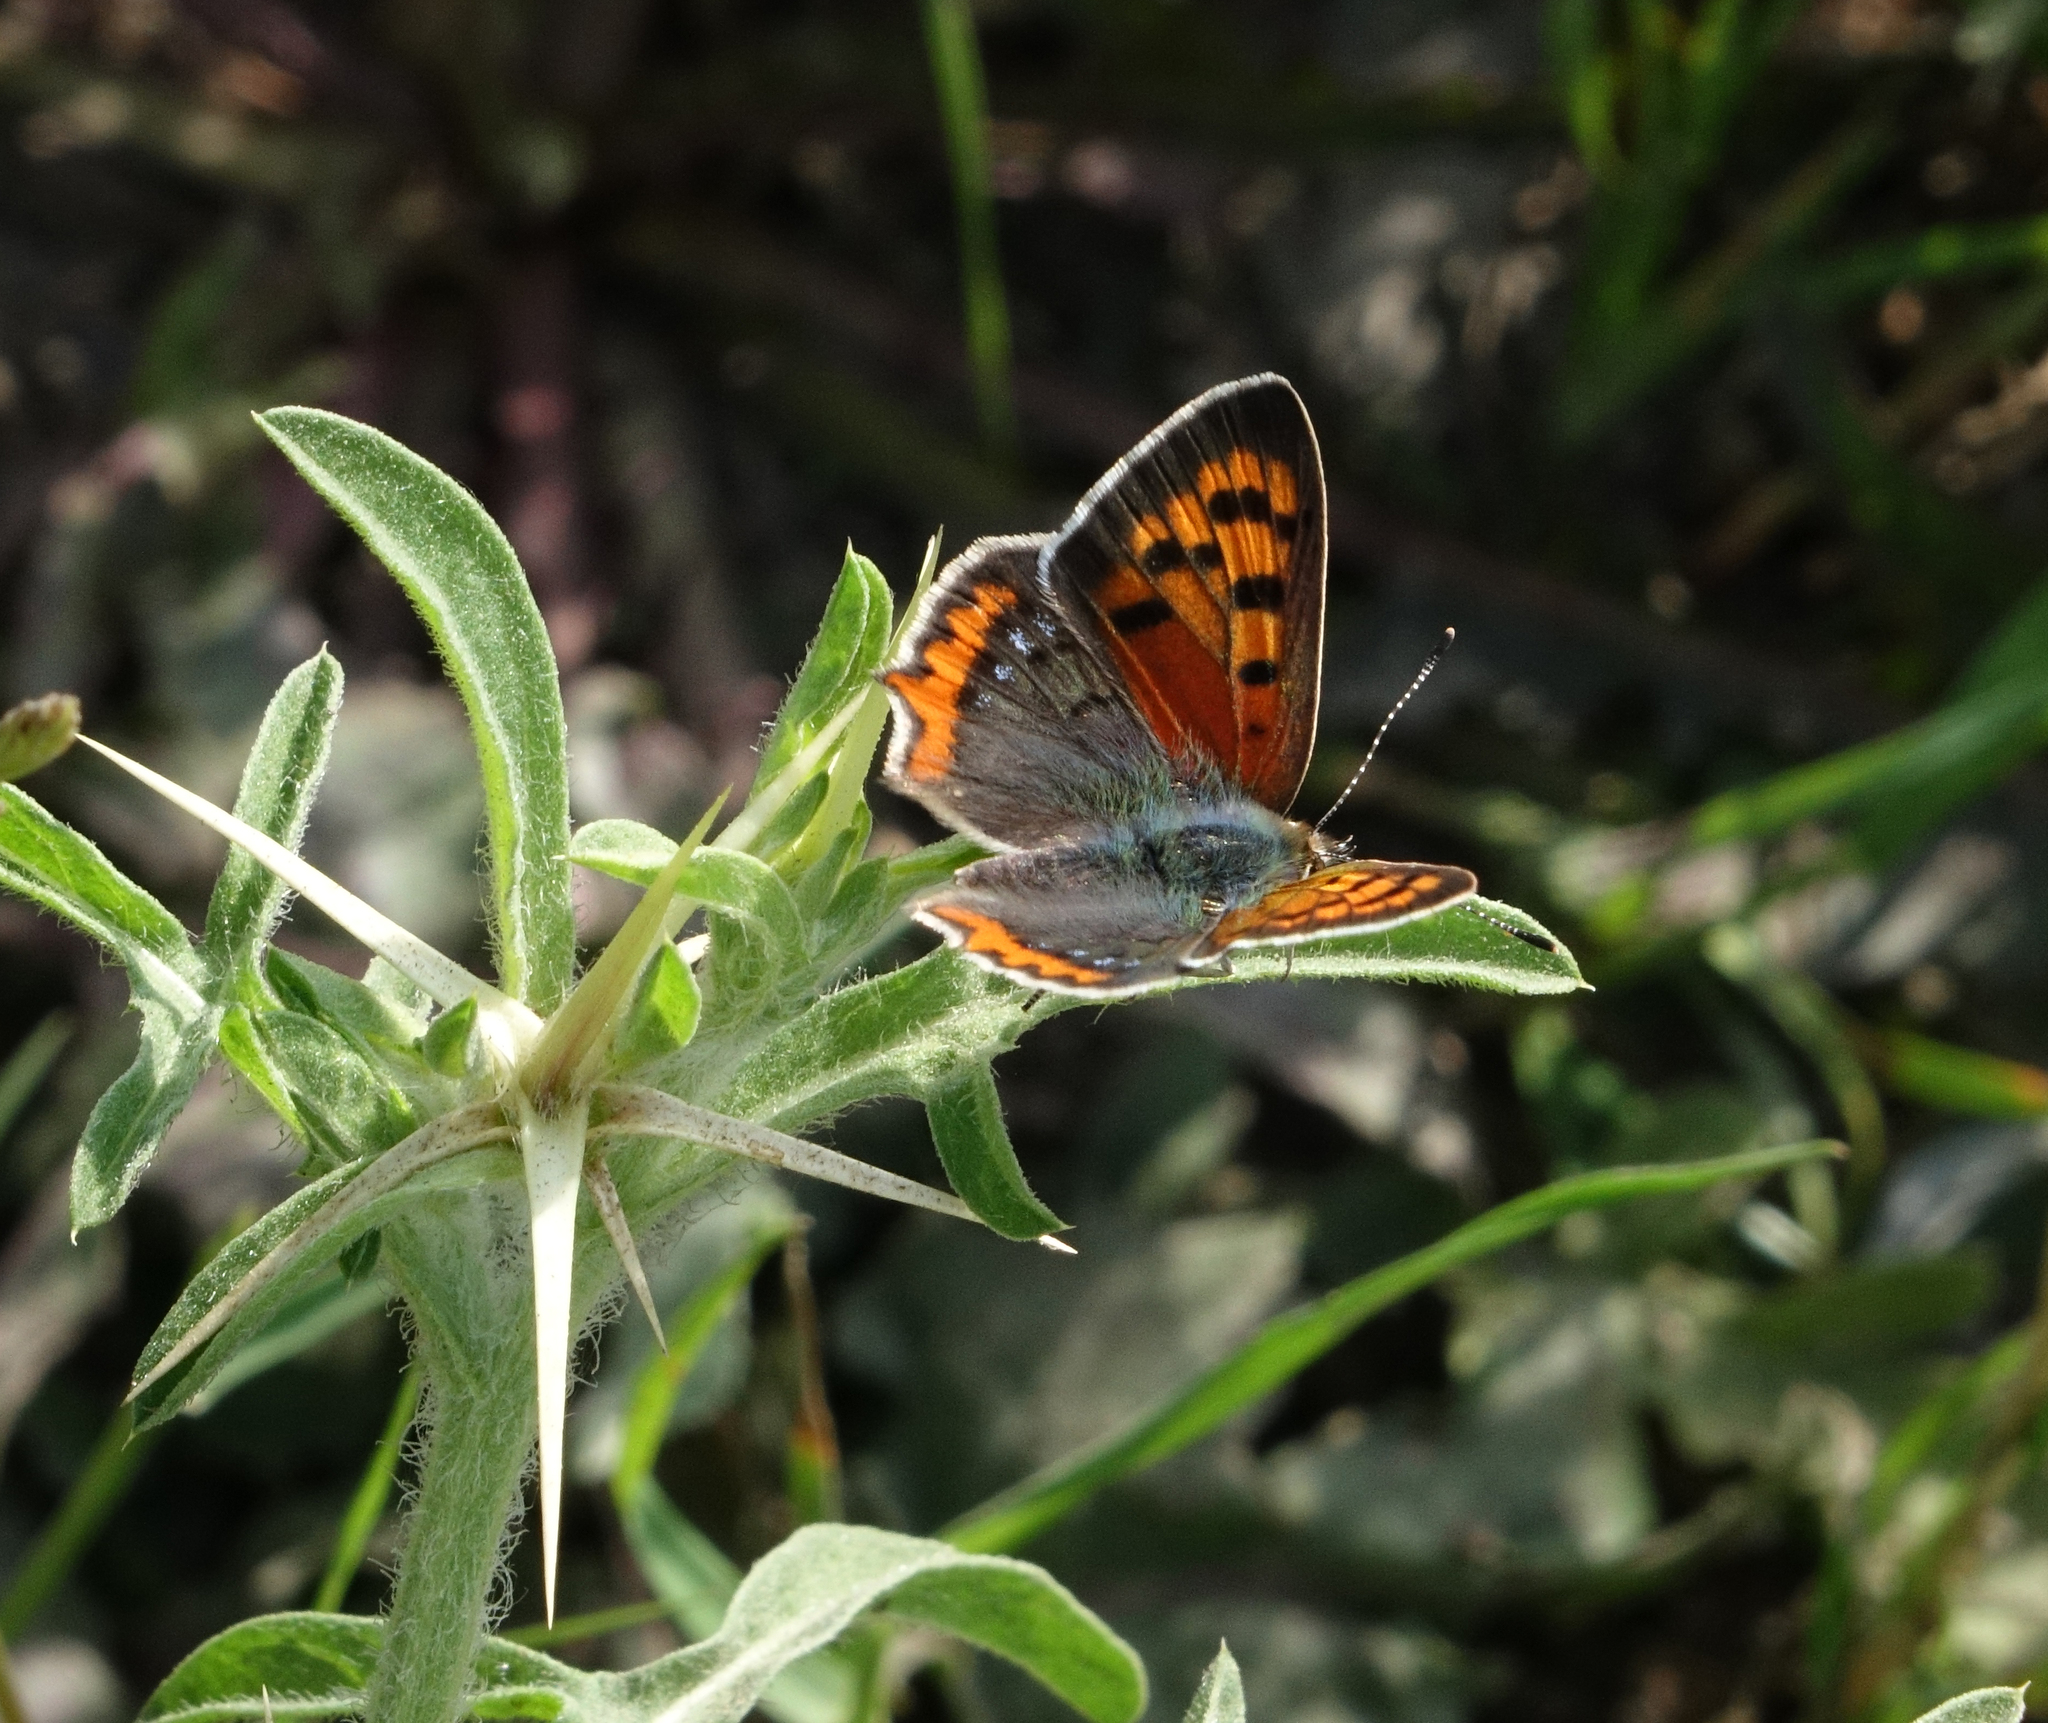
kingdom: Animalia
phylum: Arthropoda
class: Insecta
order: Lepidoptera
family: Lycaenidae
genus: Lycaena
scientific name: Lycaena phlaeas
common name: Small copper
